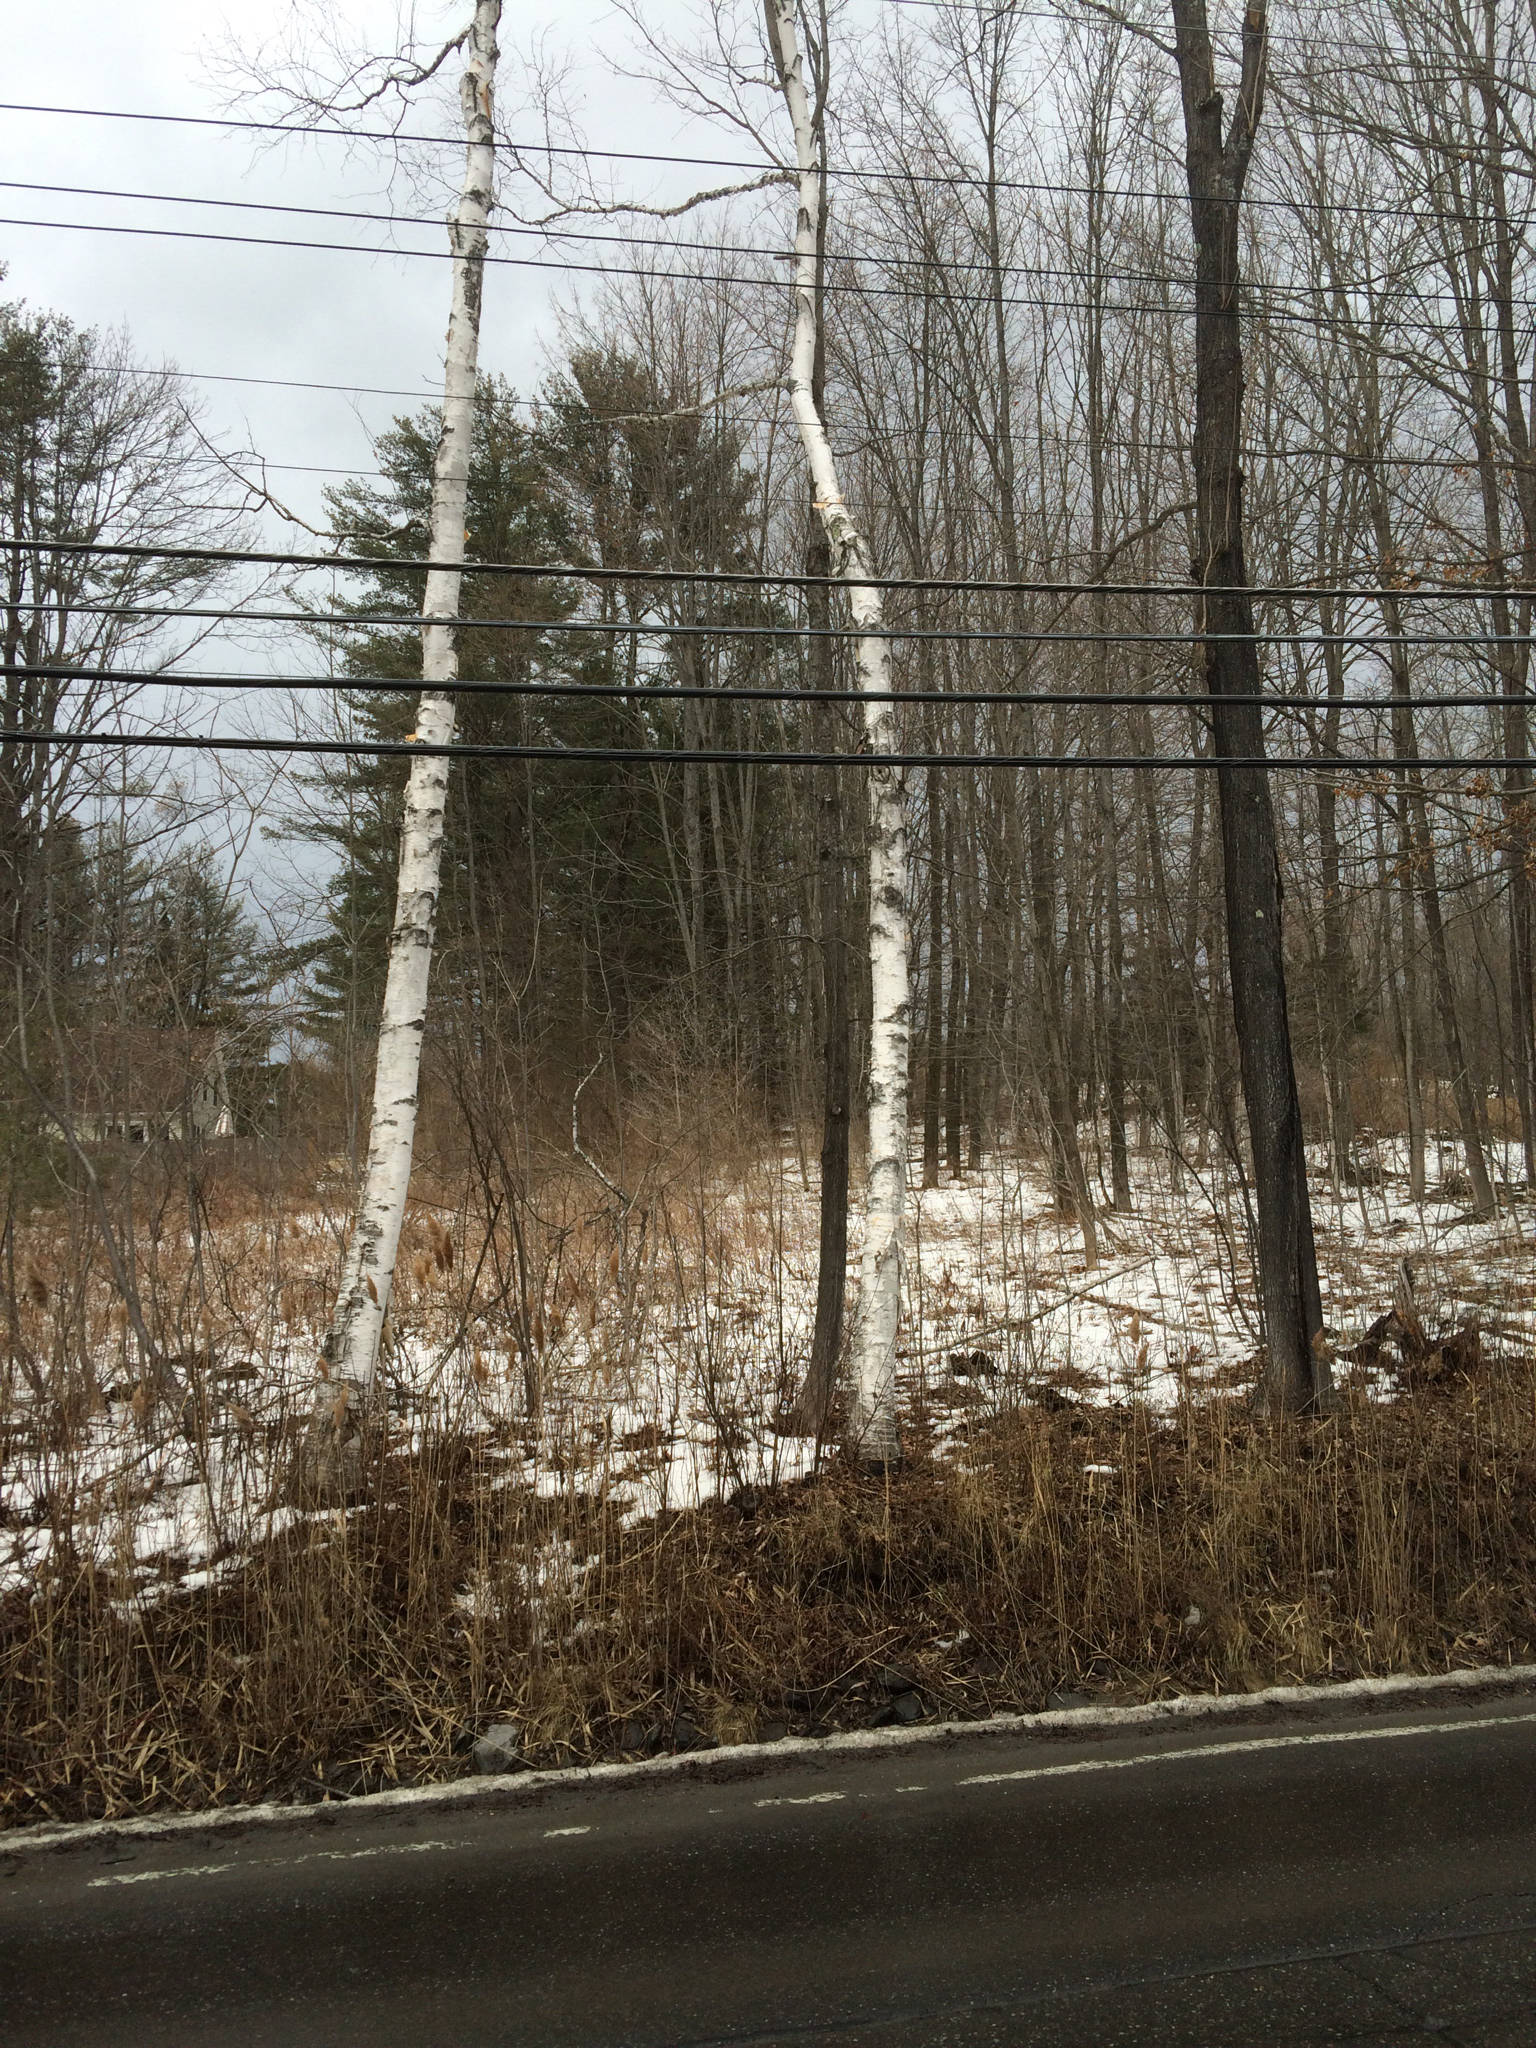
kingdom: Plantae
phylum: Tracheophyta
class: Magnoliopsida
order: Fagales
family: Betulaceae
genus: Betula
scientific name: Betula papyrifera
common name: Paper birch
